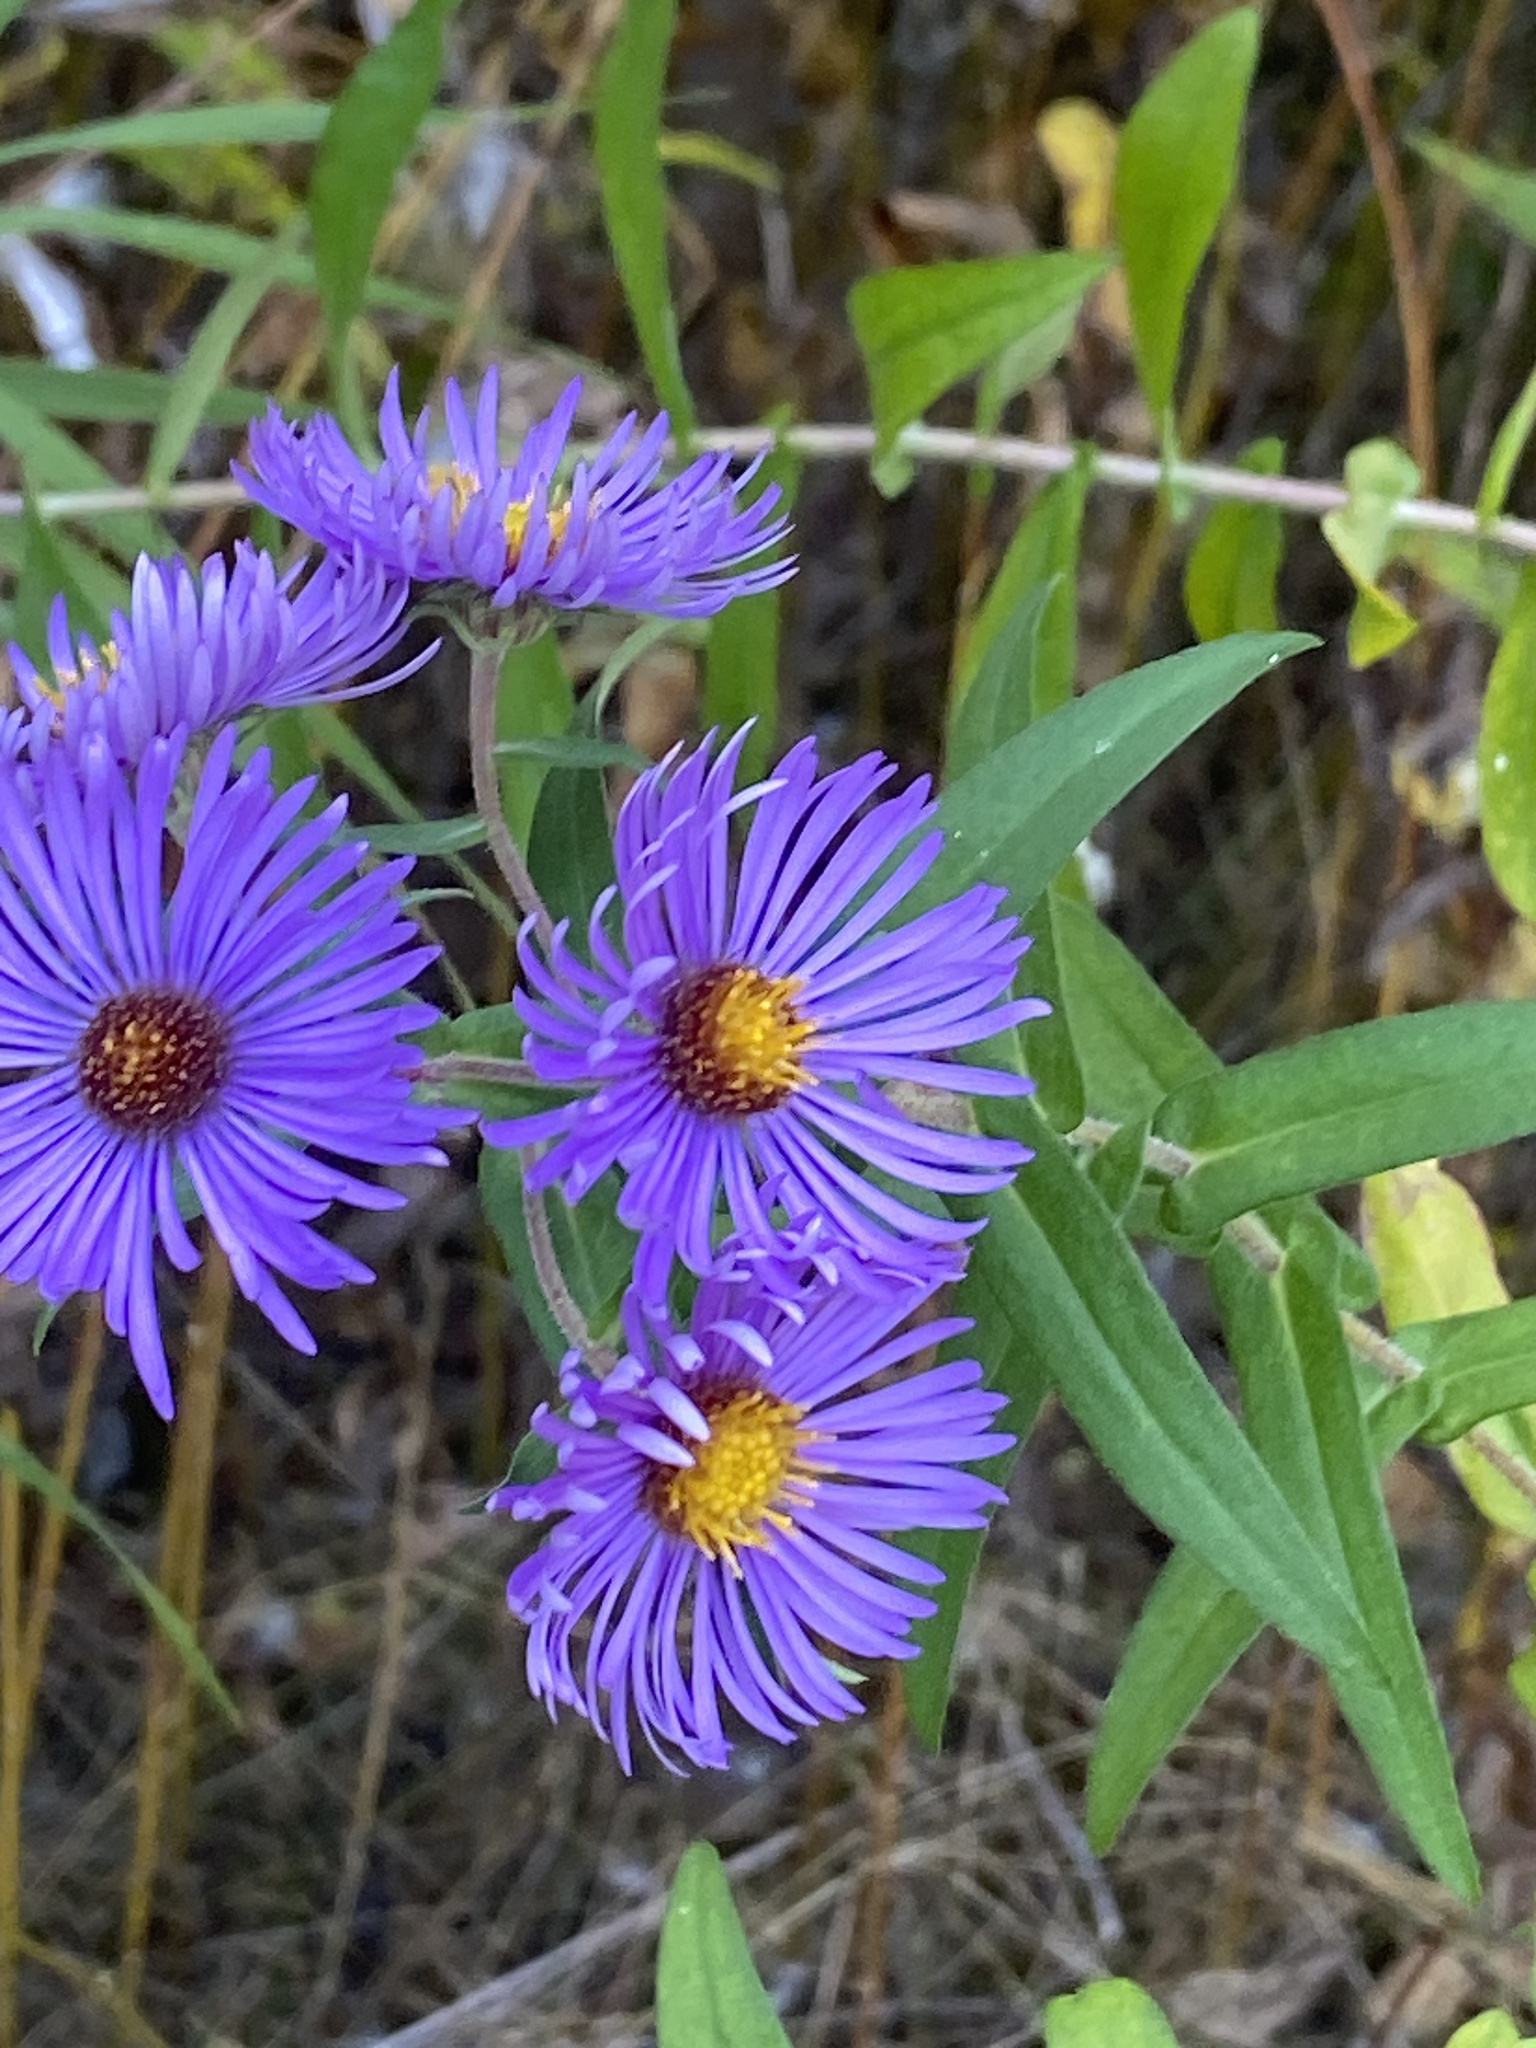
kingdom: Plantae
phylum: Tracheophyta
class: Magnoliopsida
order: Asterales
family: Asteraceae
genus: Symphyotrichum
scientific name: Symphyotrichum novae-angliae
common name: Michaelmas daisy
